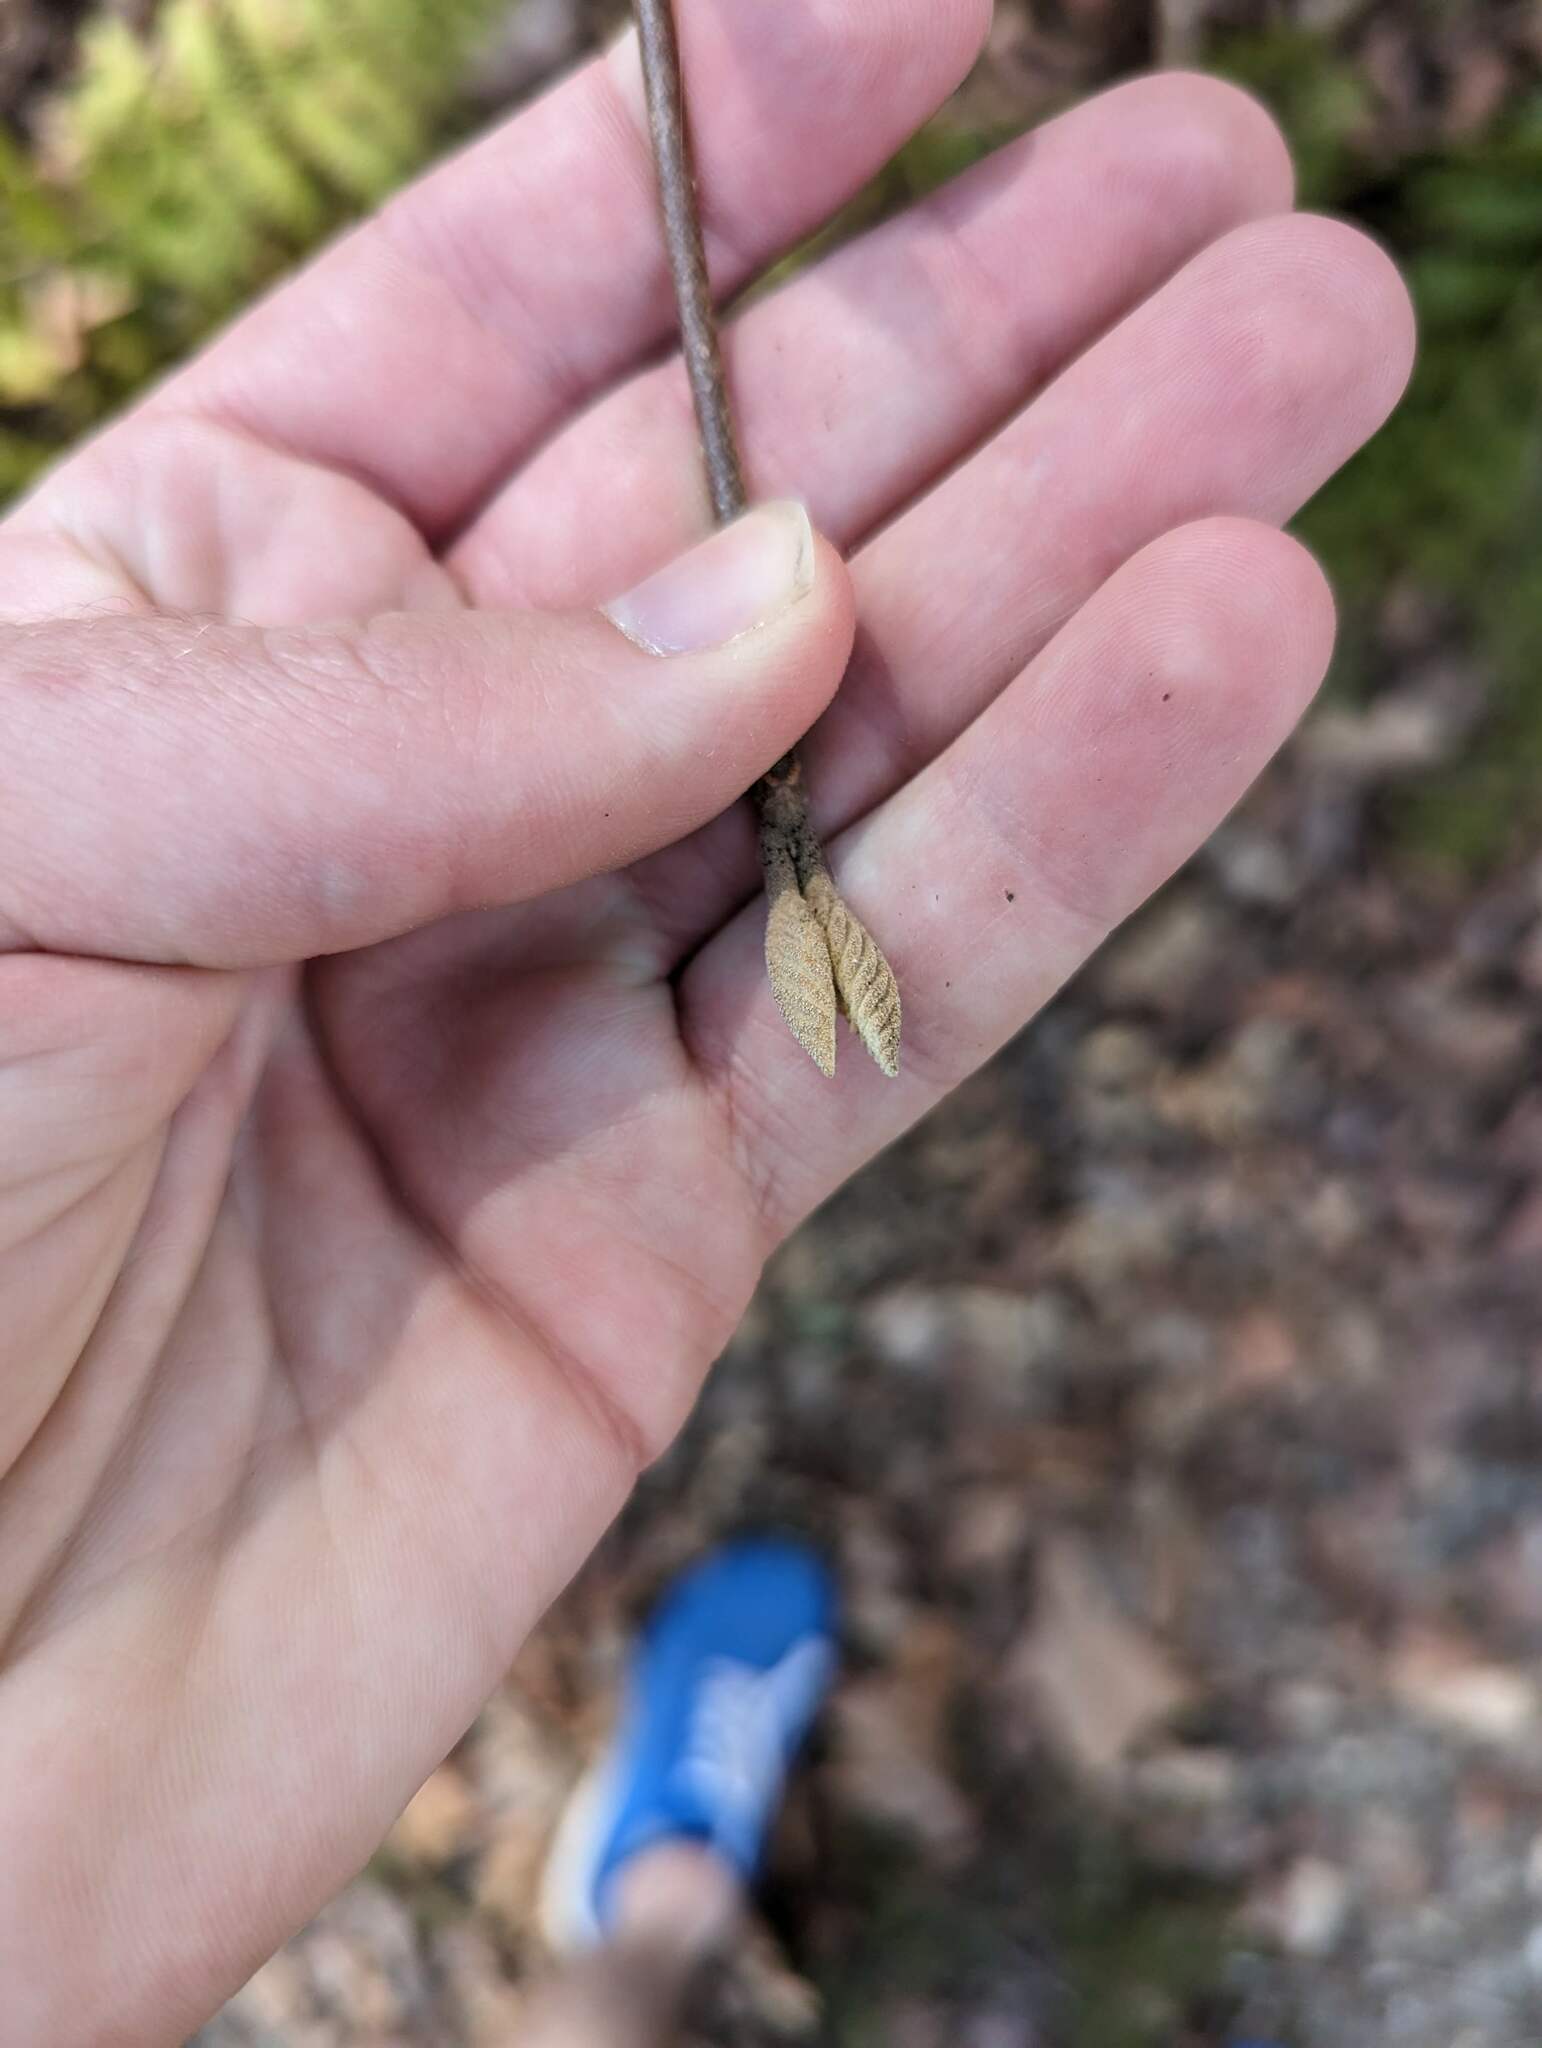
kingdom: Plantae
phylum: Tracheophyta
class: Magnoliopsida
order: Dipsacales
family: Viburnaceae
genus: Viburnum
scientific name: Viburnum lantanoides
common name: Hobblebush
